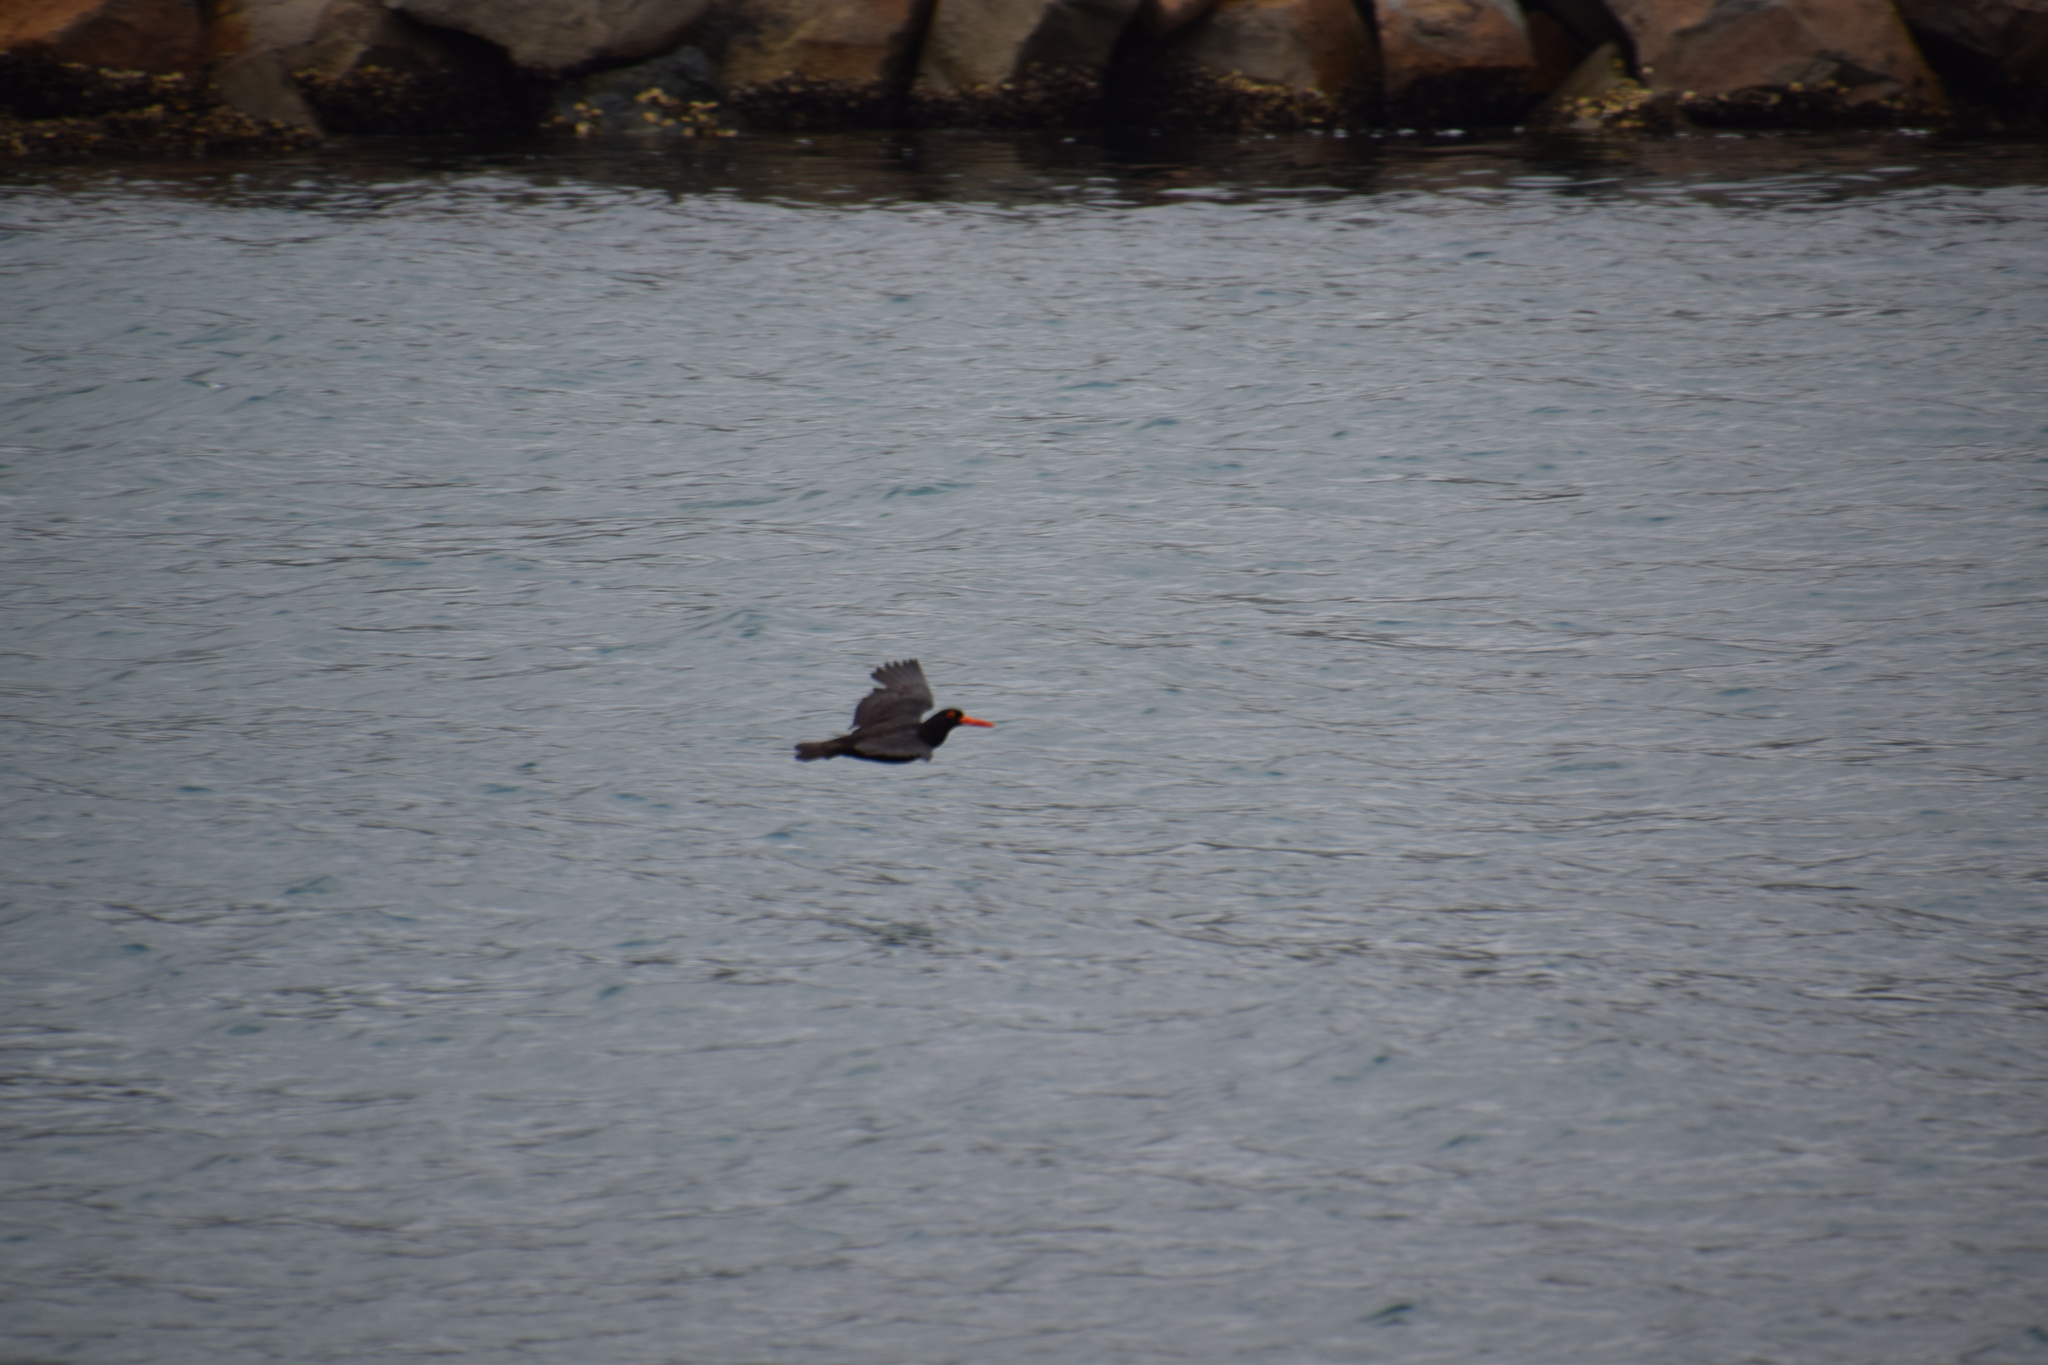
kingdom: Animalia
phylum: Chordata
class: Aves
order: Charadriiformes
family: Haematopodidae
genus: Haematopus
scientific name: Haematopus fuliginosus
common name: Sooty oystercatcher
